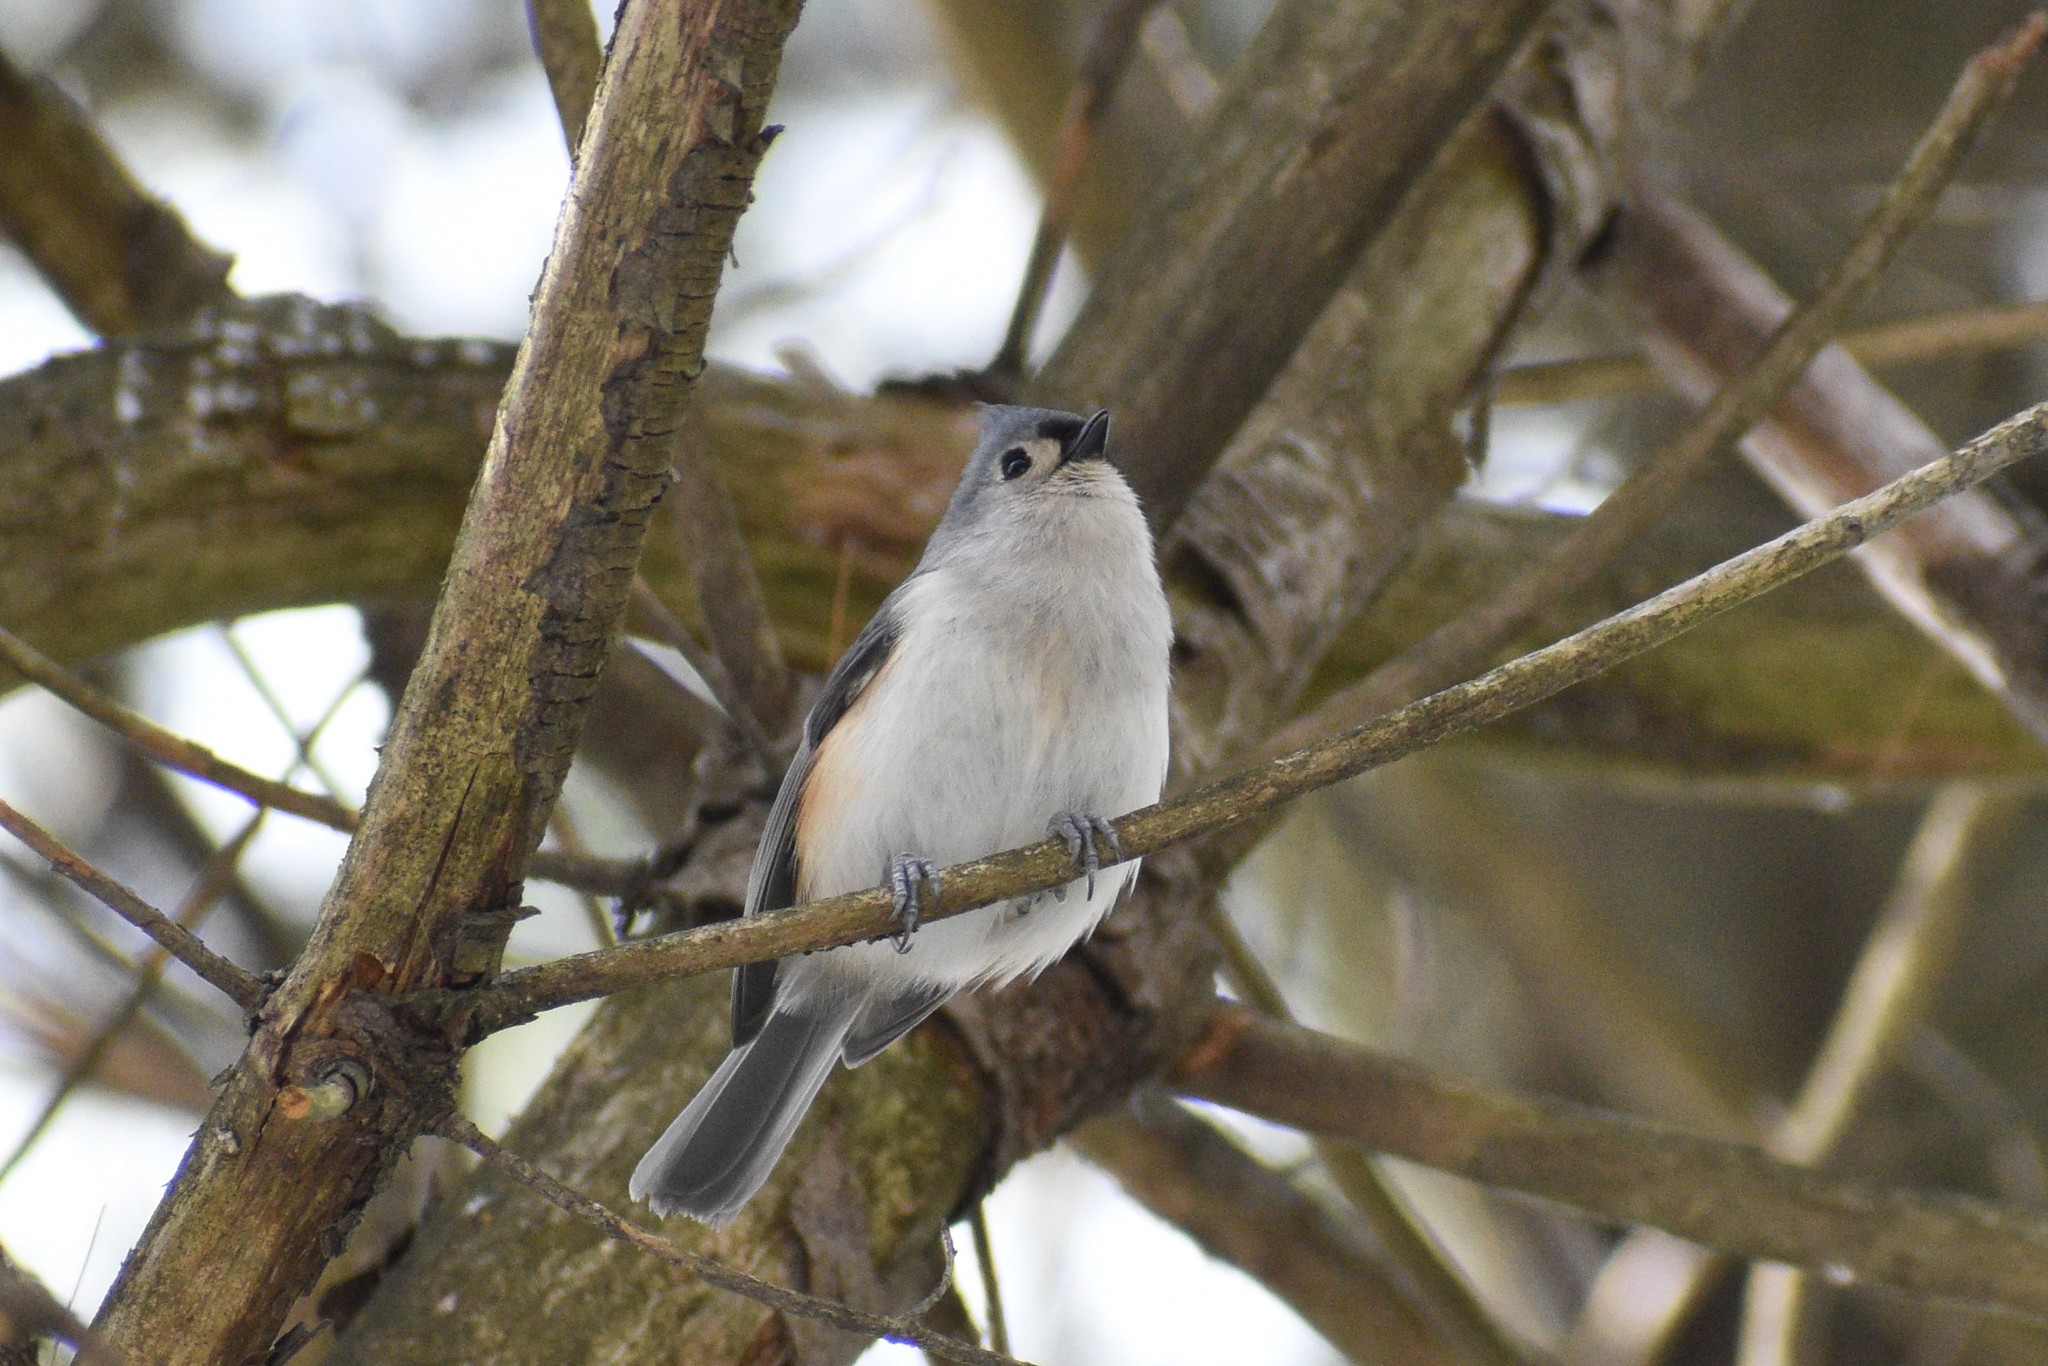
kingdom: Animalia
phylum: Chordata
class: Aves
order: Passeriformes
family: Paridae
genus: Baeolophus
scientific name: Baeolophus bicolor
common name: Tufted titmouse
